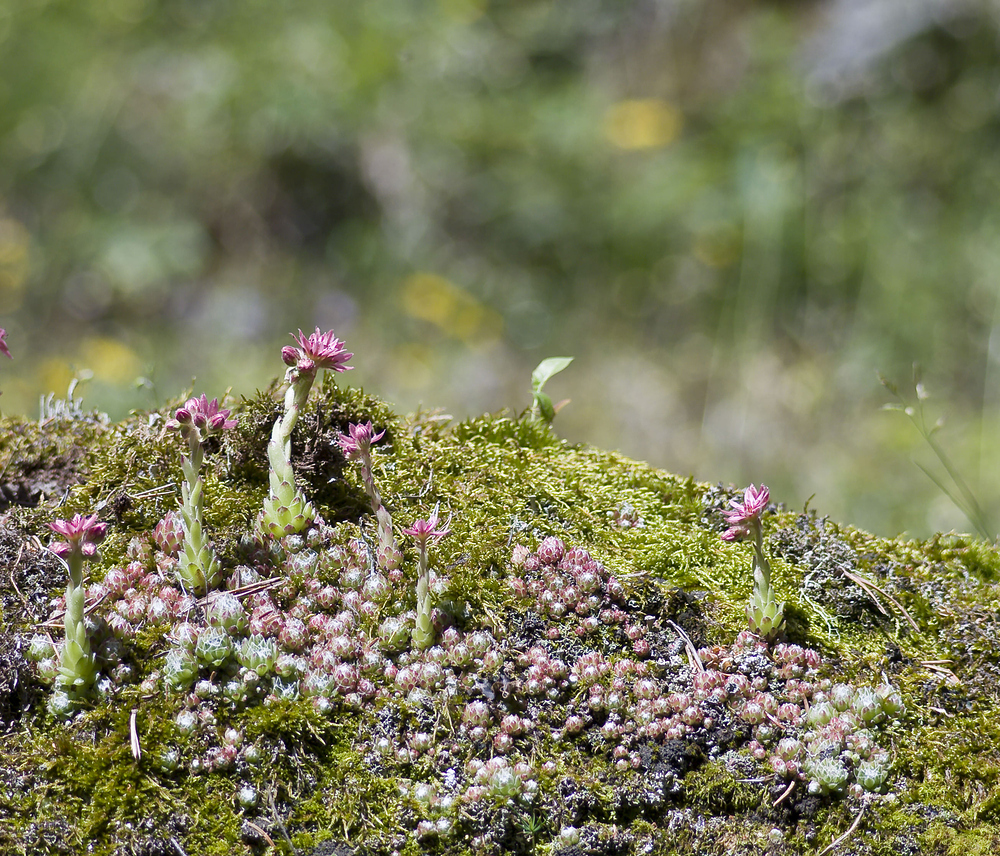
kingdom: Plantae
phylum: Tracheophyta
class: Magnoliopsida
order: Saxifragales
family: Crassulaceae
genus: Sempervivum
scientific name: Sempervivum arachnoideum
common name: Cobweb house-leek
